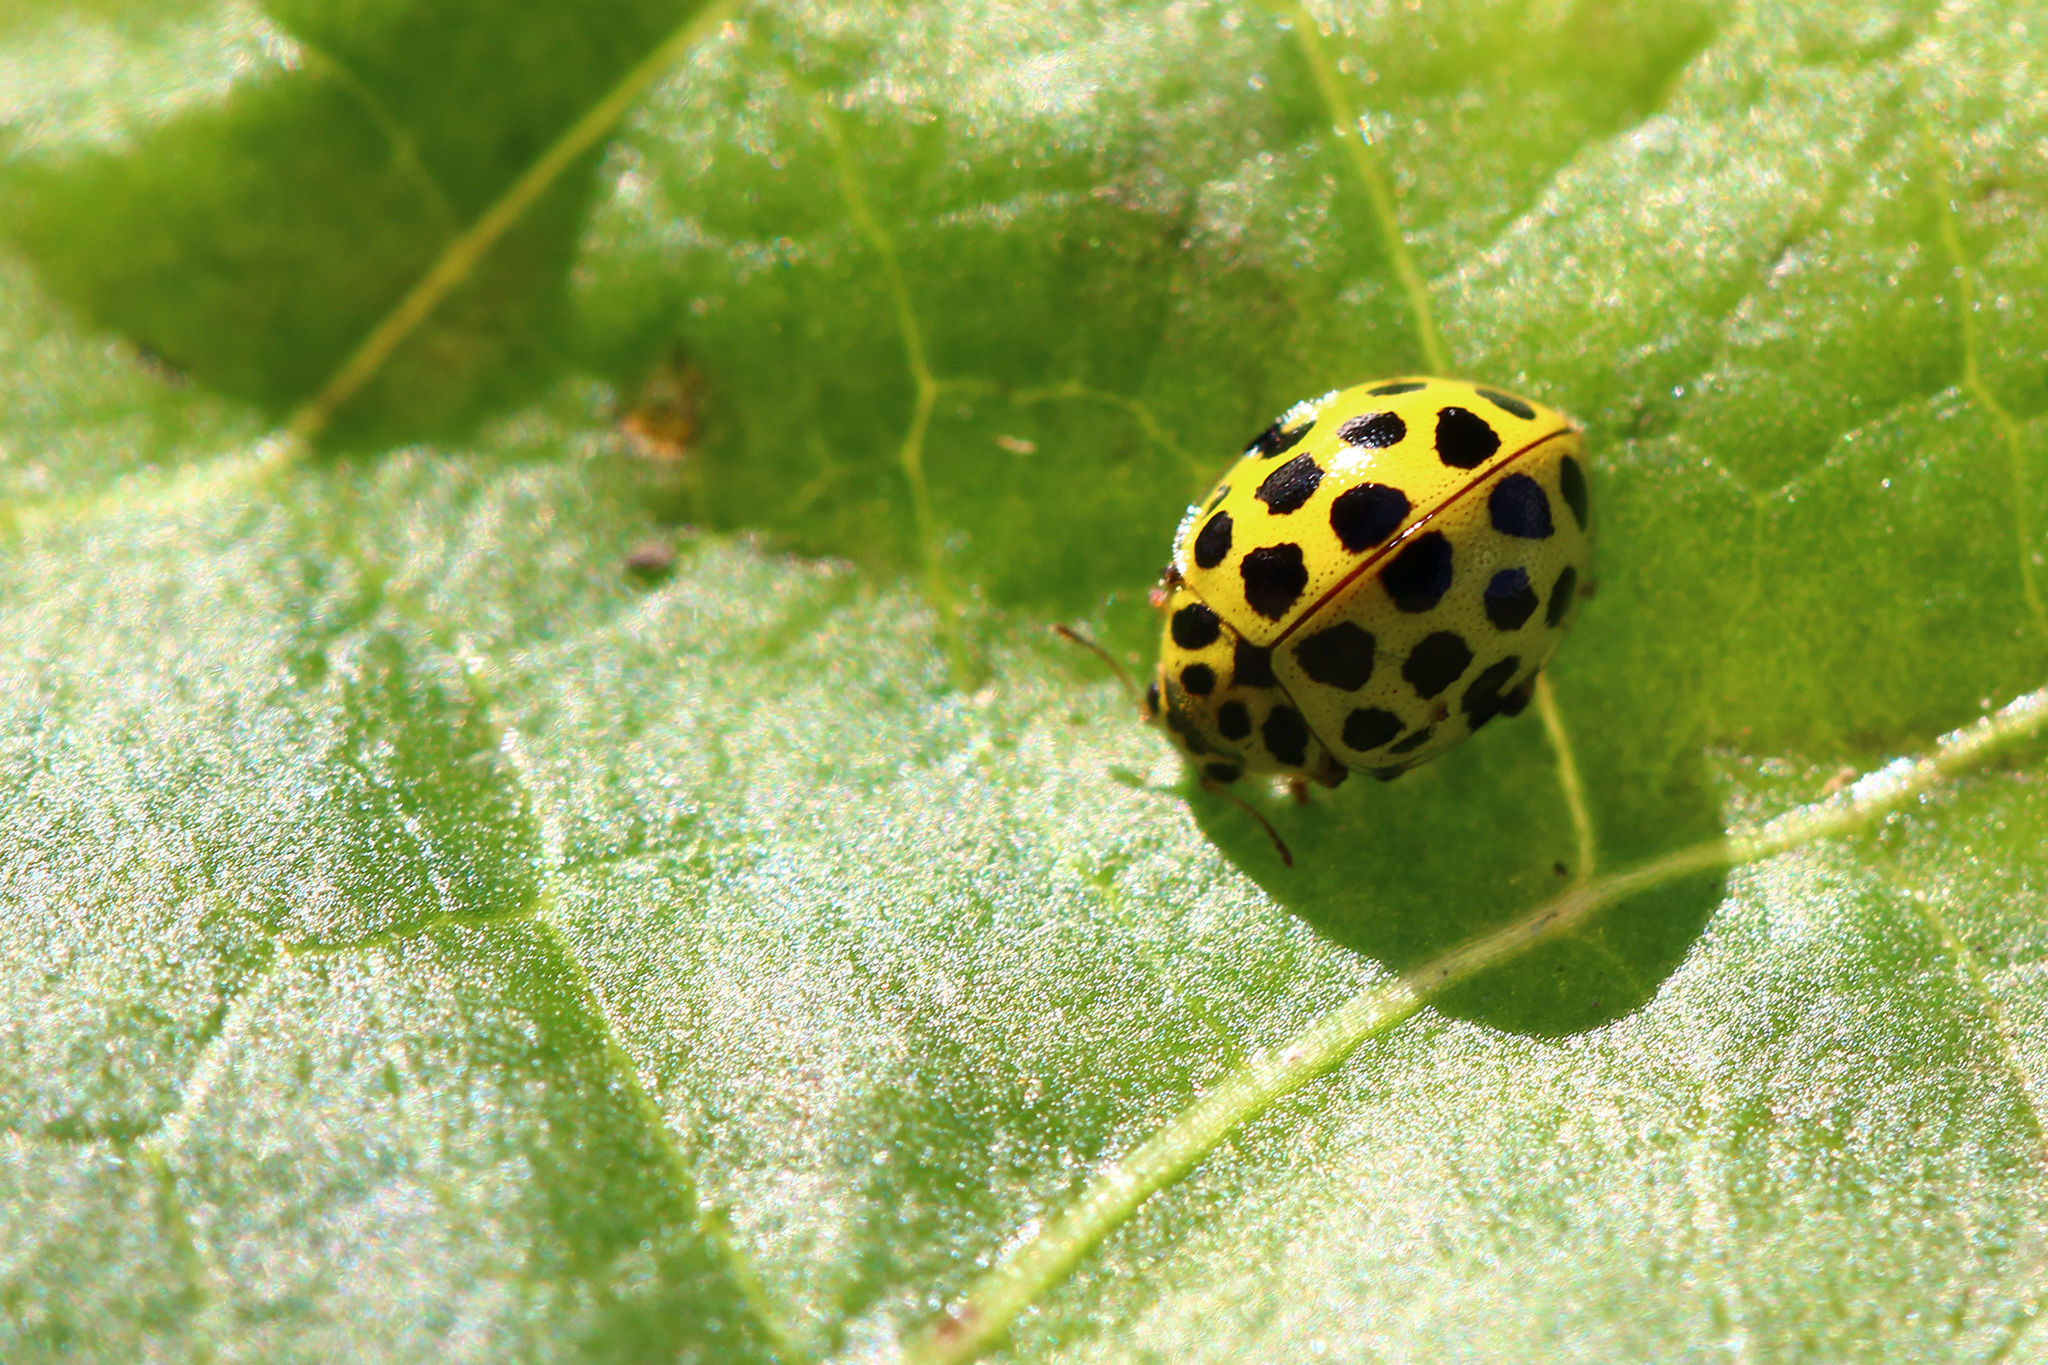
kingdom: Animalia
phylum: Arthropoda
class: Insecta
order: Coleoptera
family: Coccinellidae
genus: Psyllobora
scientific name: Psyllobora vigintiduopunctata
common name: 22-spot ladybird
